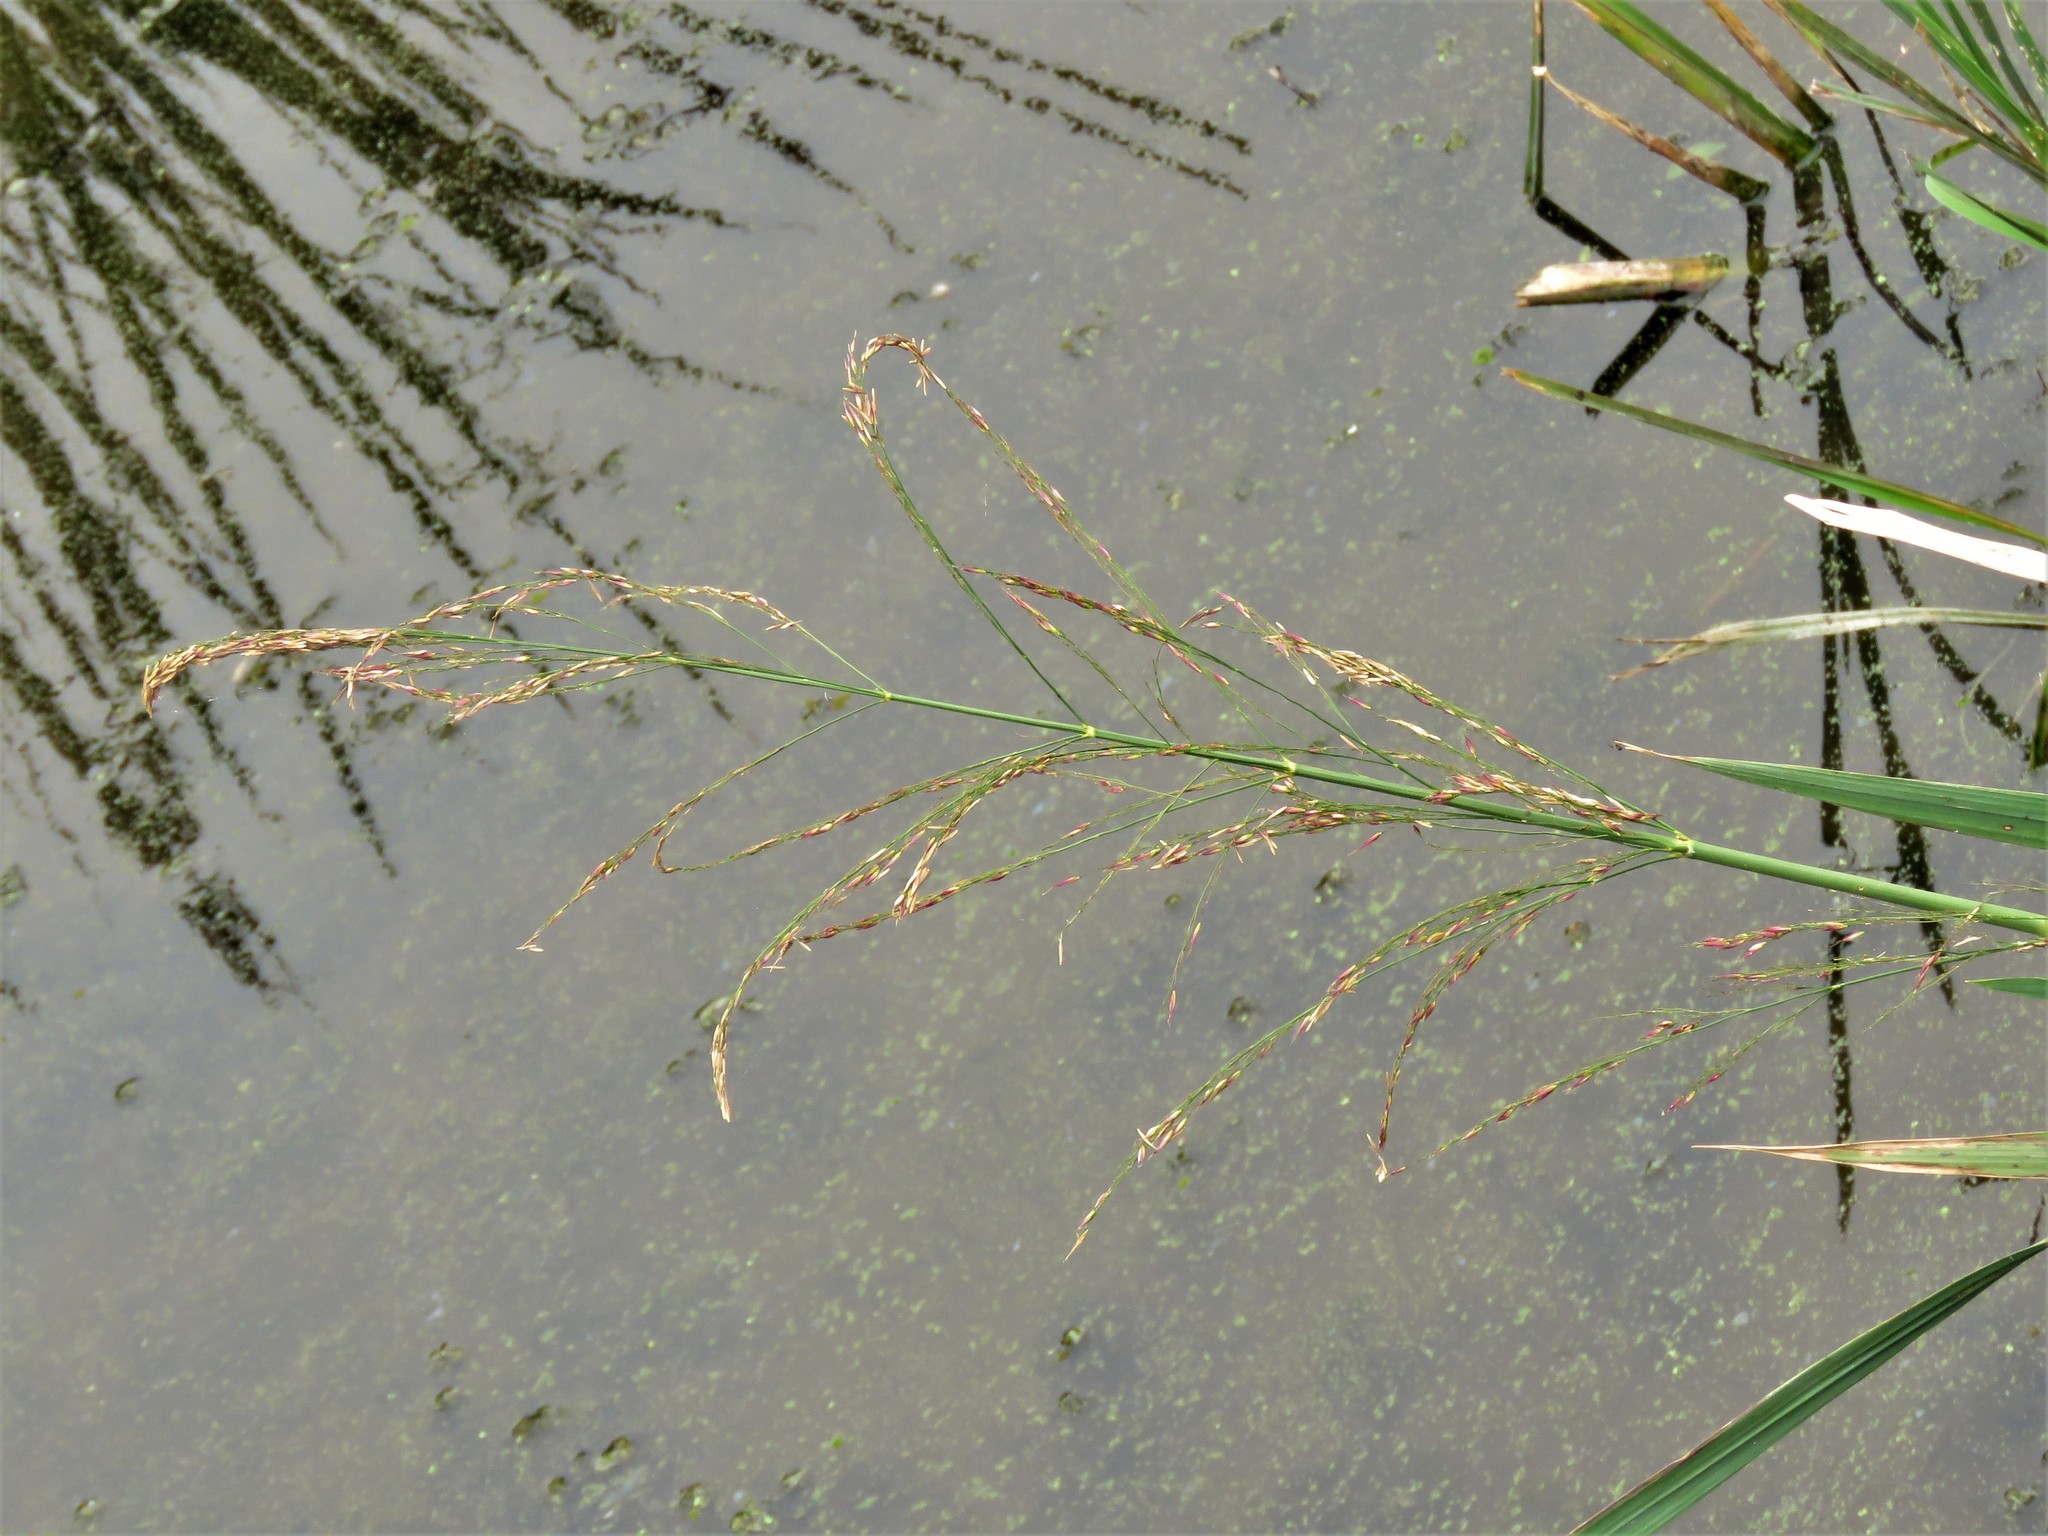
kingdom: Plantae
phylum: Tracheophyta
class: Liliopsida
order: Poales
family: Poaceae
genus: Zizaniopsis
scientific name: Zizaniopsis miliacea
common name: Giant-cutgrass
